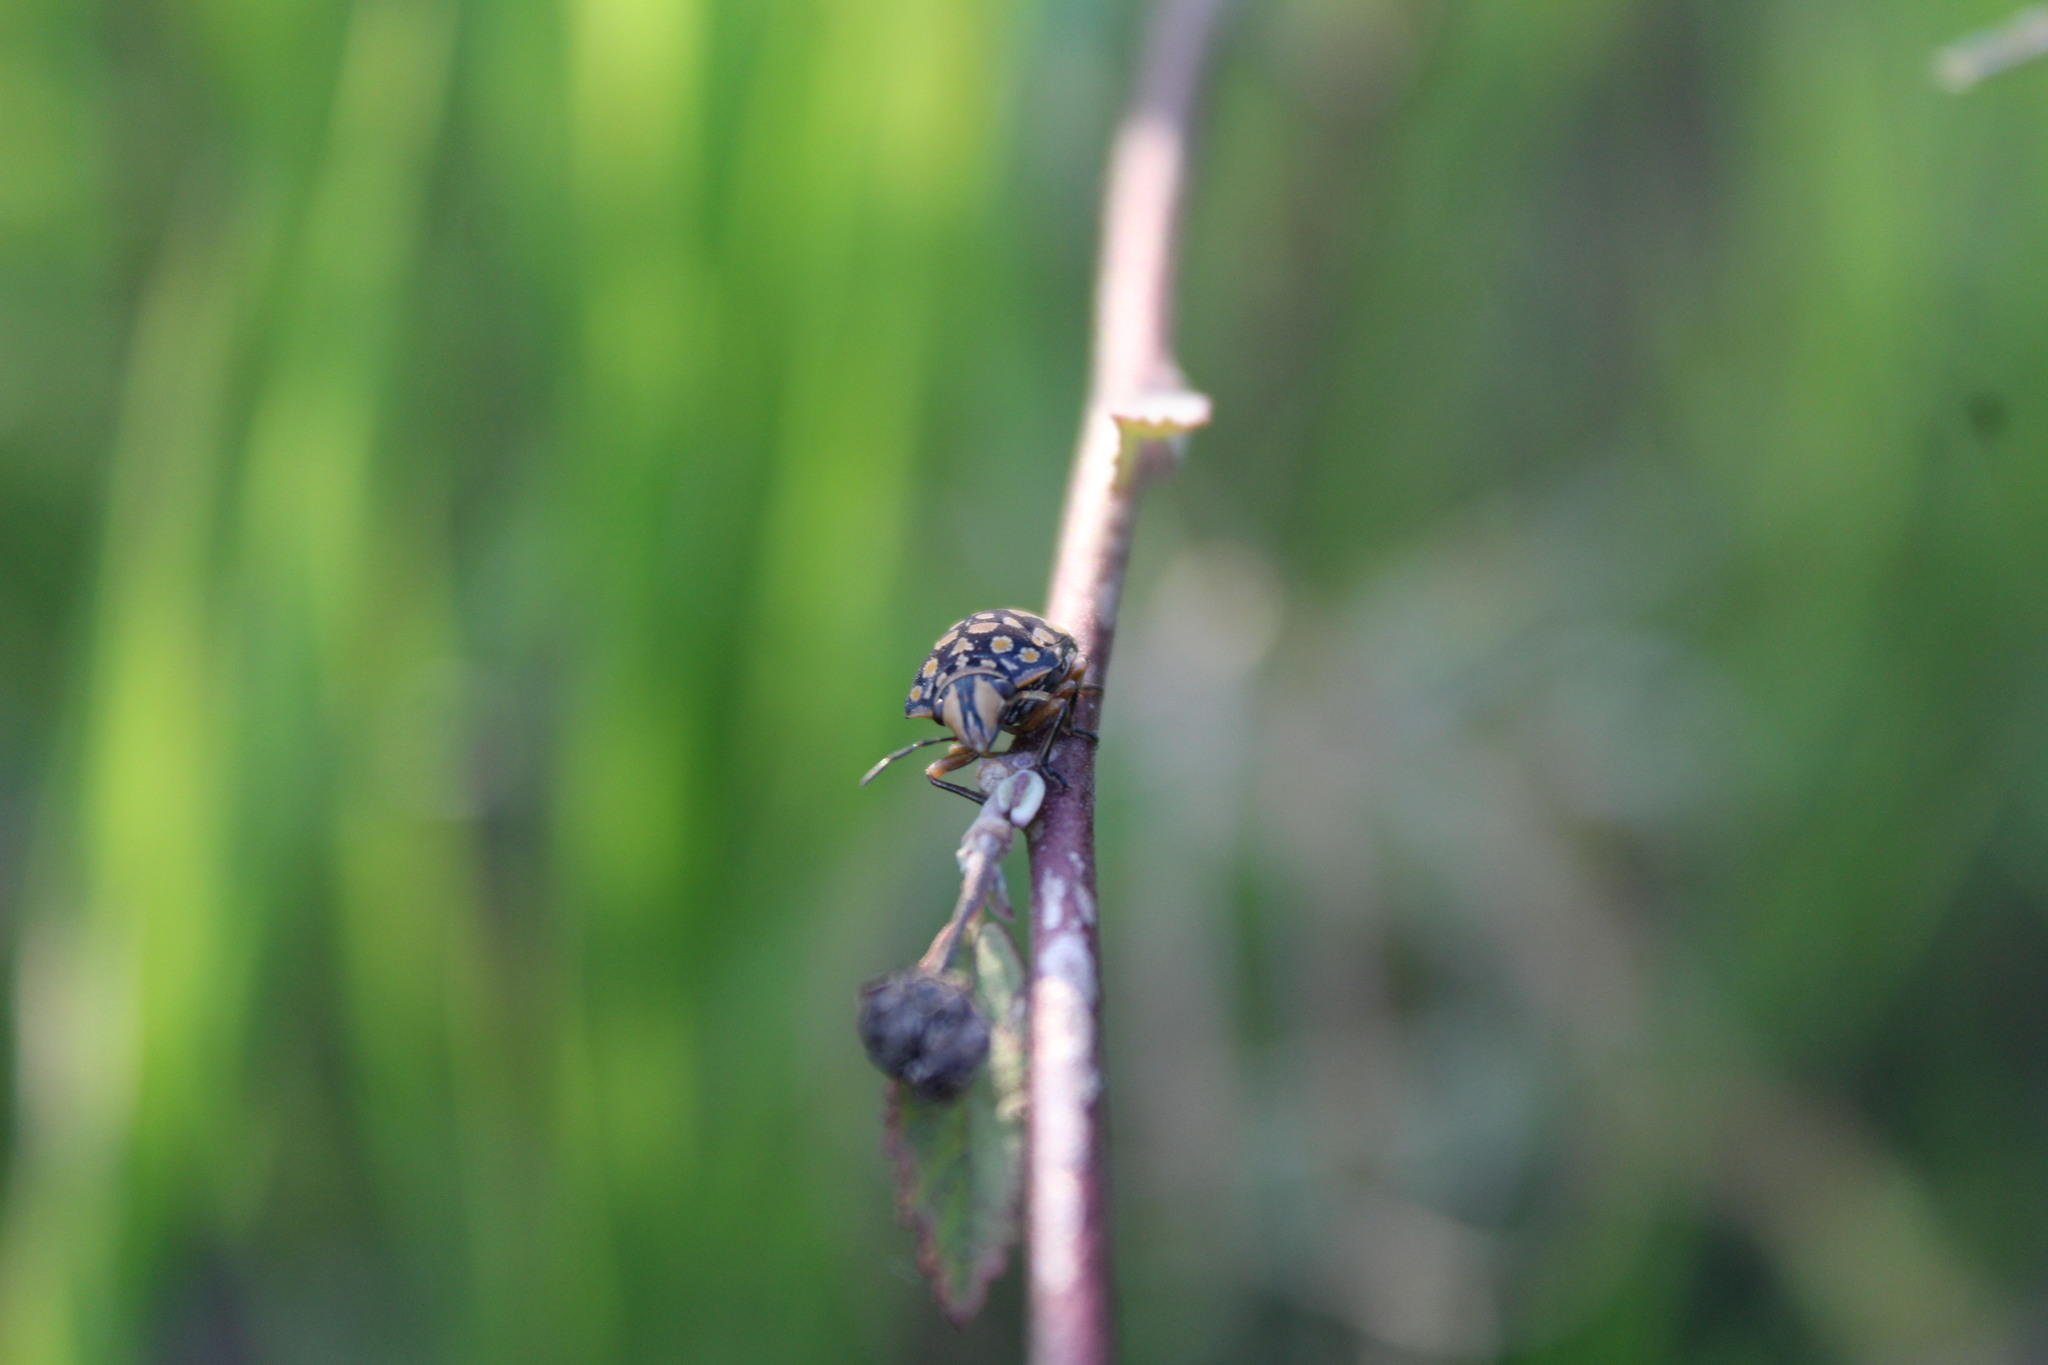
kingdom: Animalia
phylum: Arthropoda
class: Insecta
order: Hemiptera
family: Scutelleridae
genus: Orsilochides
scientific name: Orsilochides
